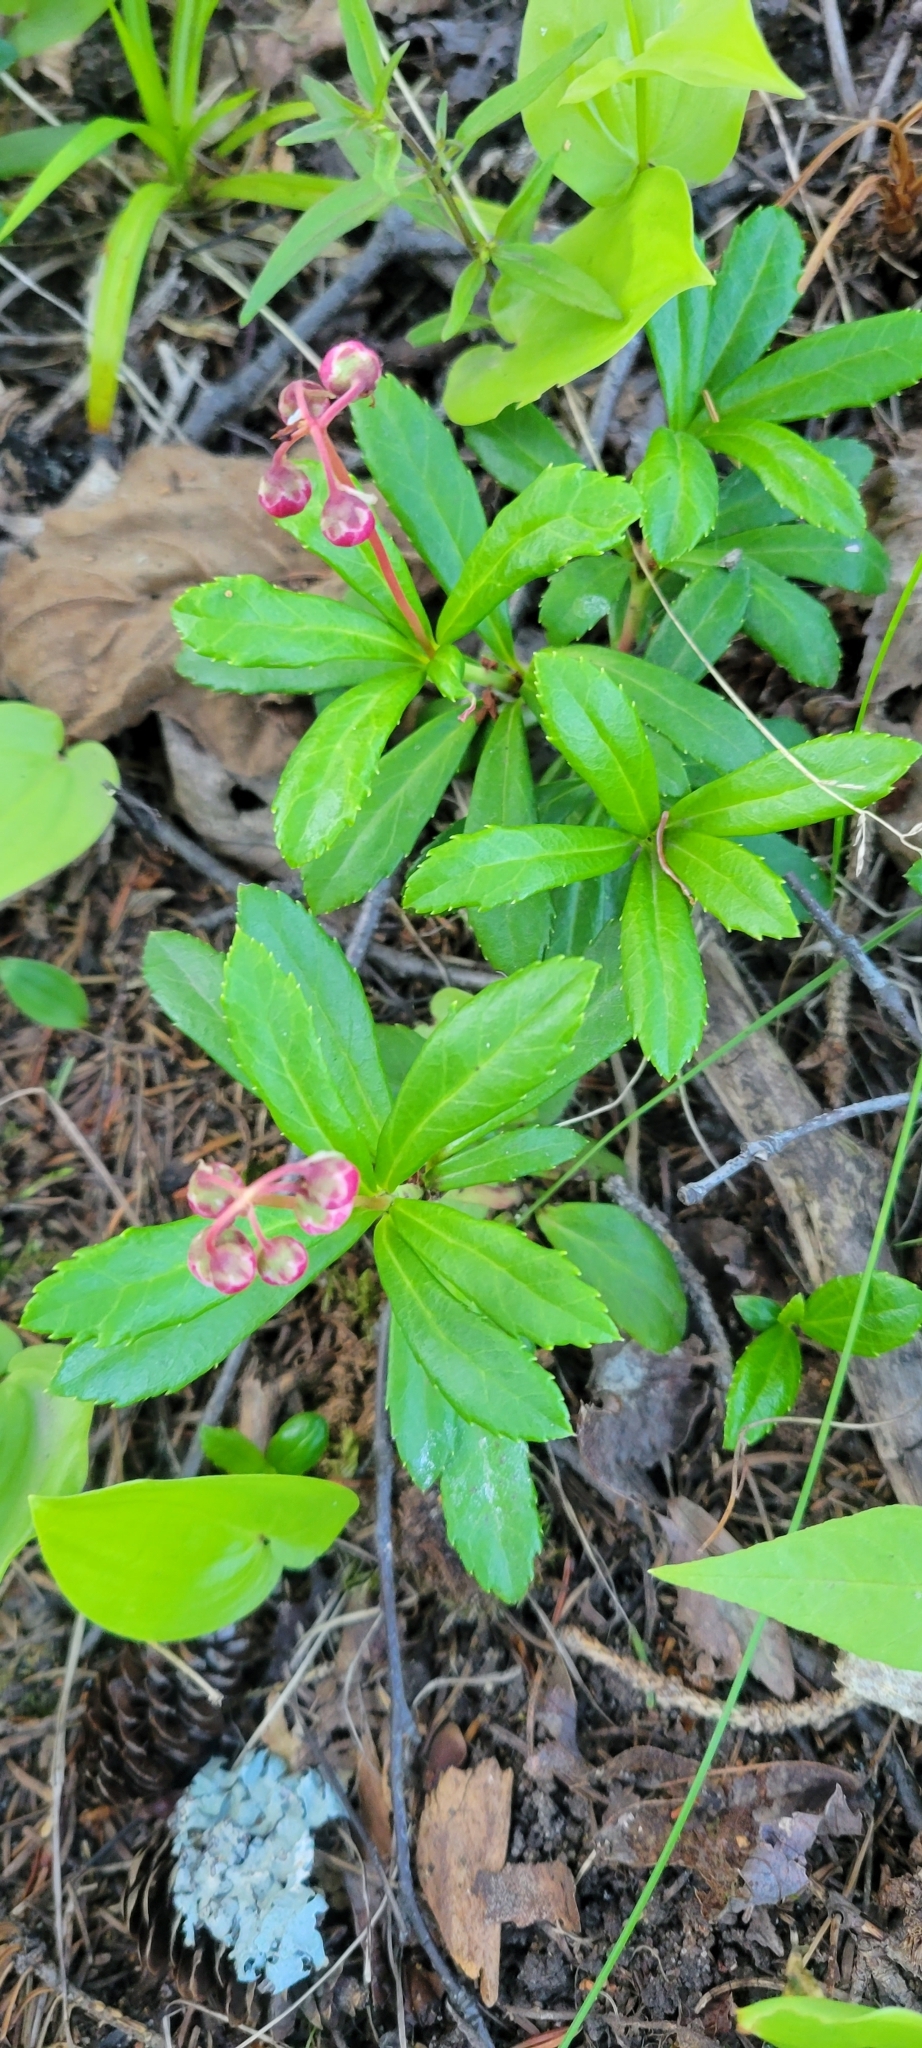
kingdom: Plantae
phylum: Tracheophyta
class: Magnoliopsida
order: Ericales
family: Ericaceae
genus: Chimaphila
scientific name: Chimaphila umbellata
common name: Pipsissewa
